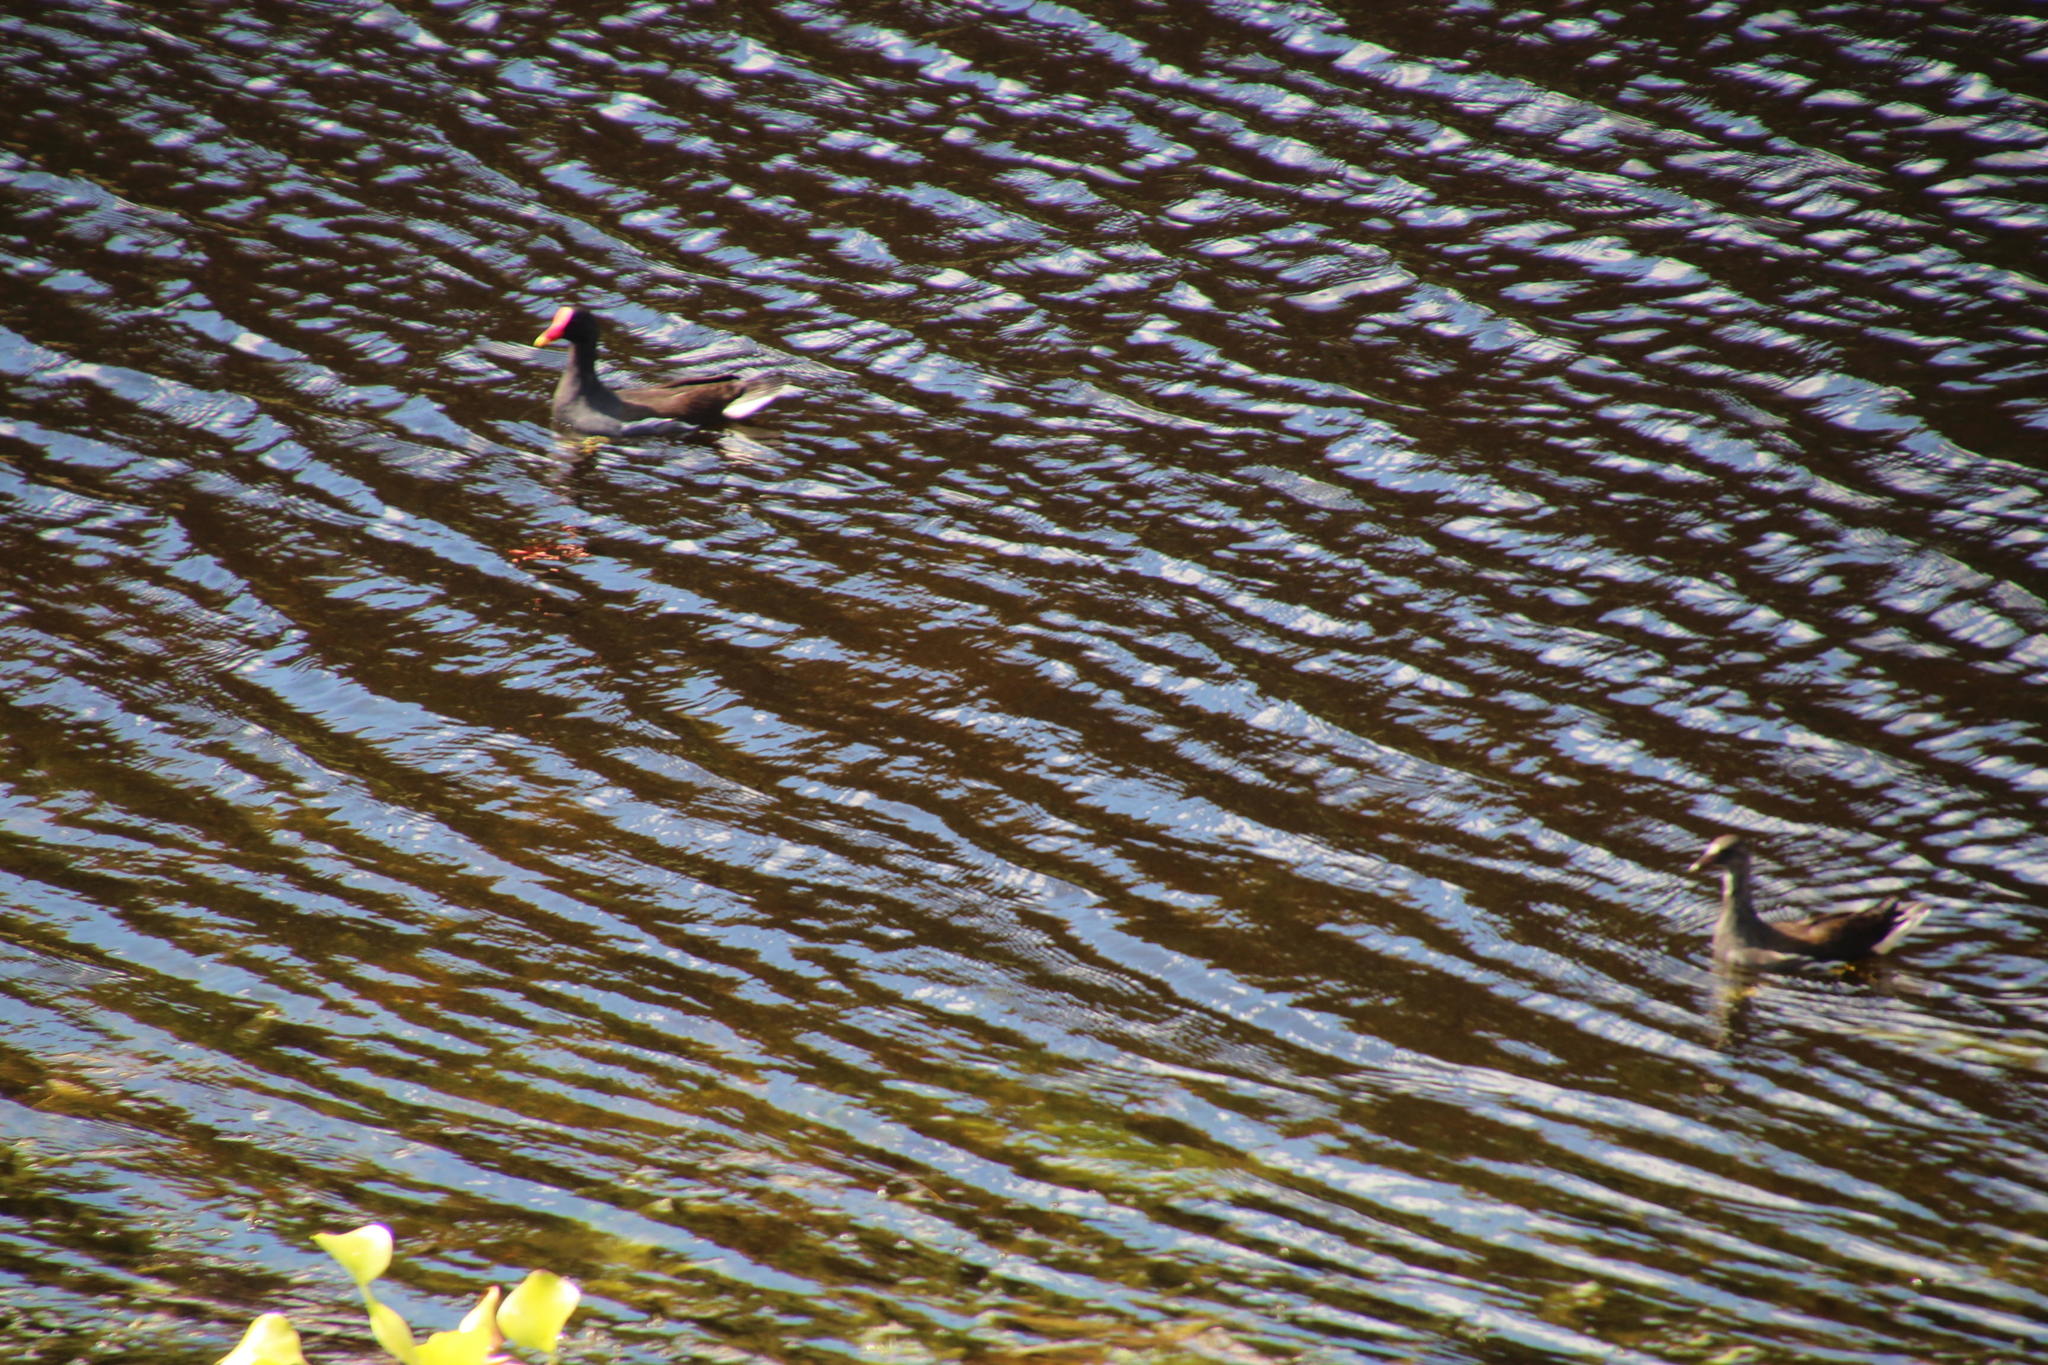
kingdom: Animalia
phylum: Chordata
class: Aves
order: Gruiformes
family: Rallidae
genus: Gallinula
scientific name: Gallinula chloropus
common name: Common moorhen
